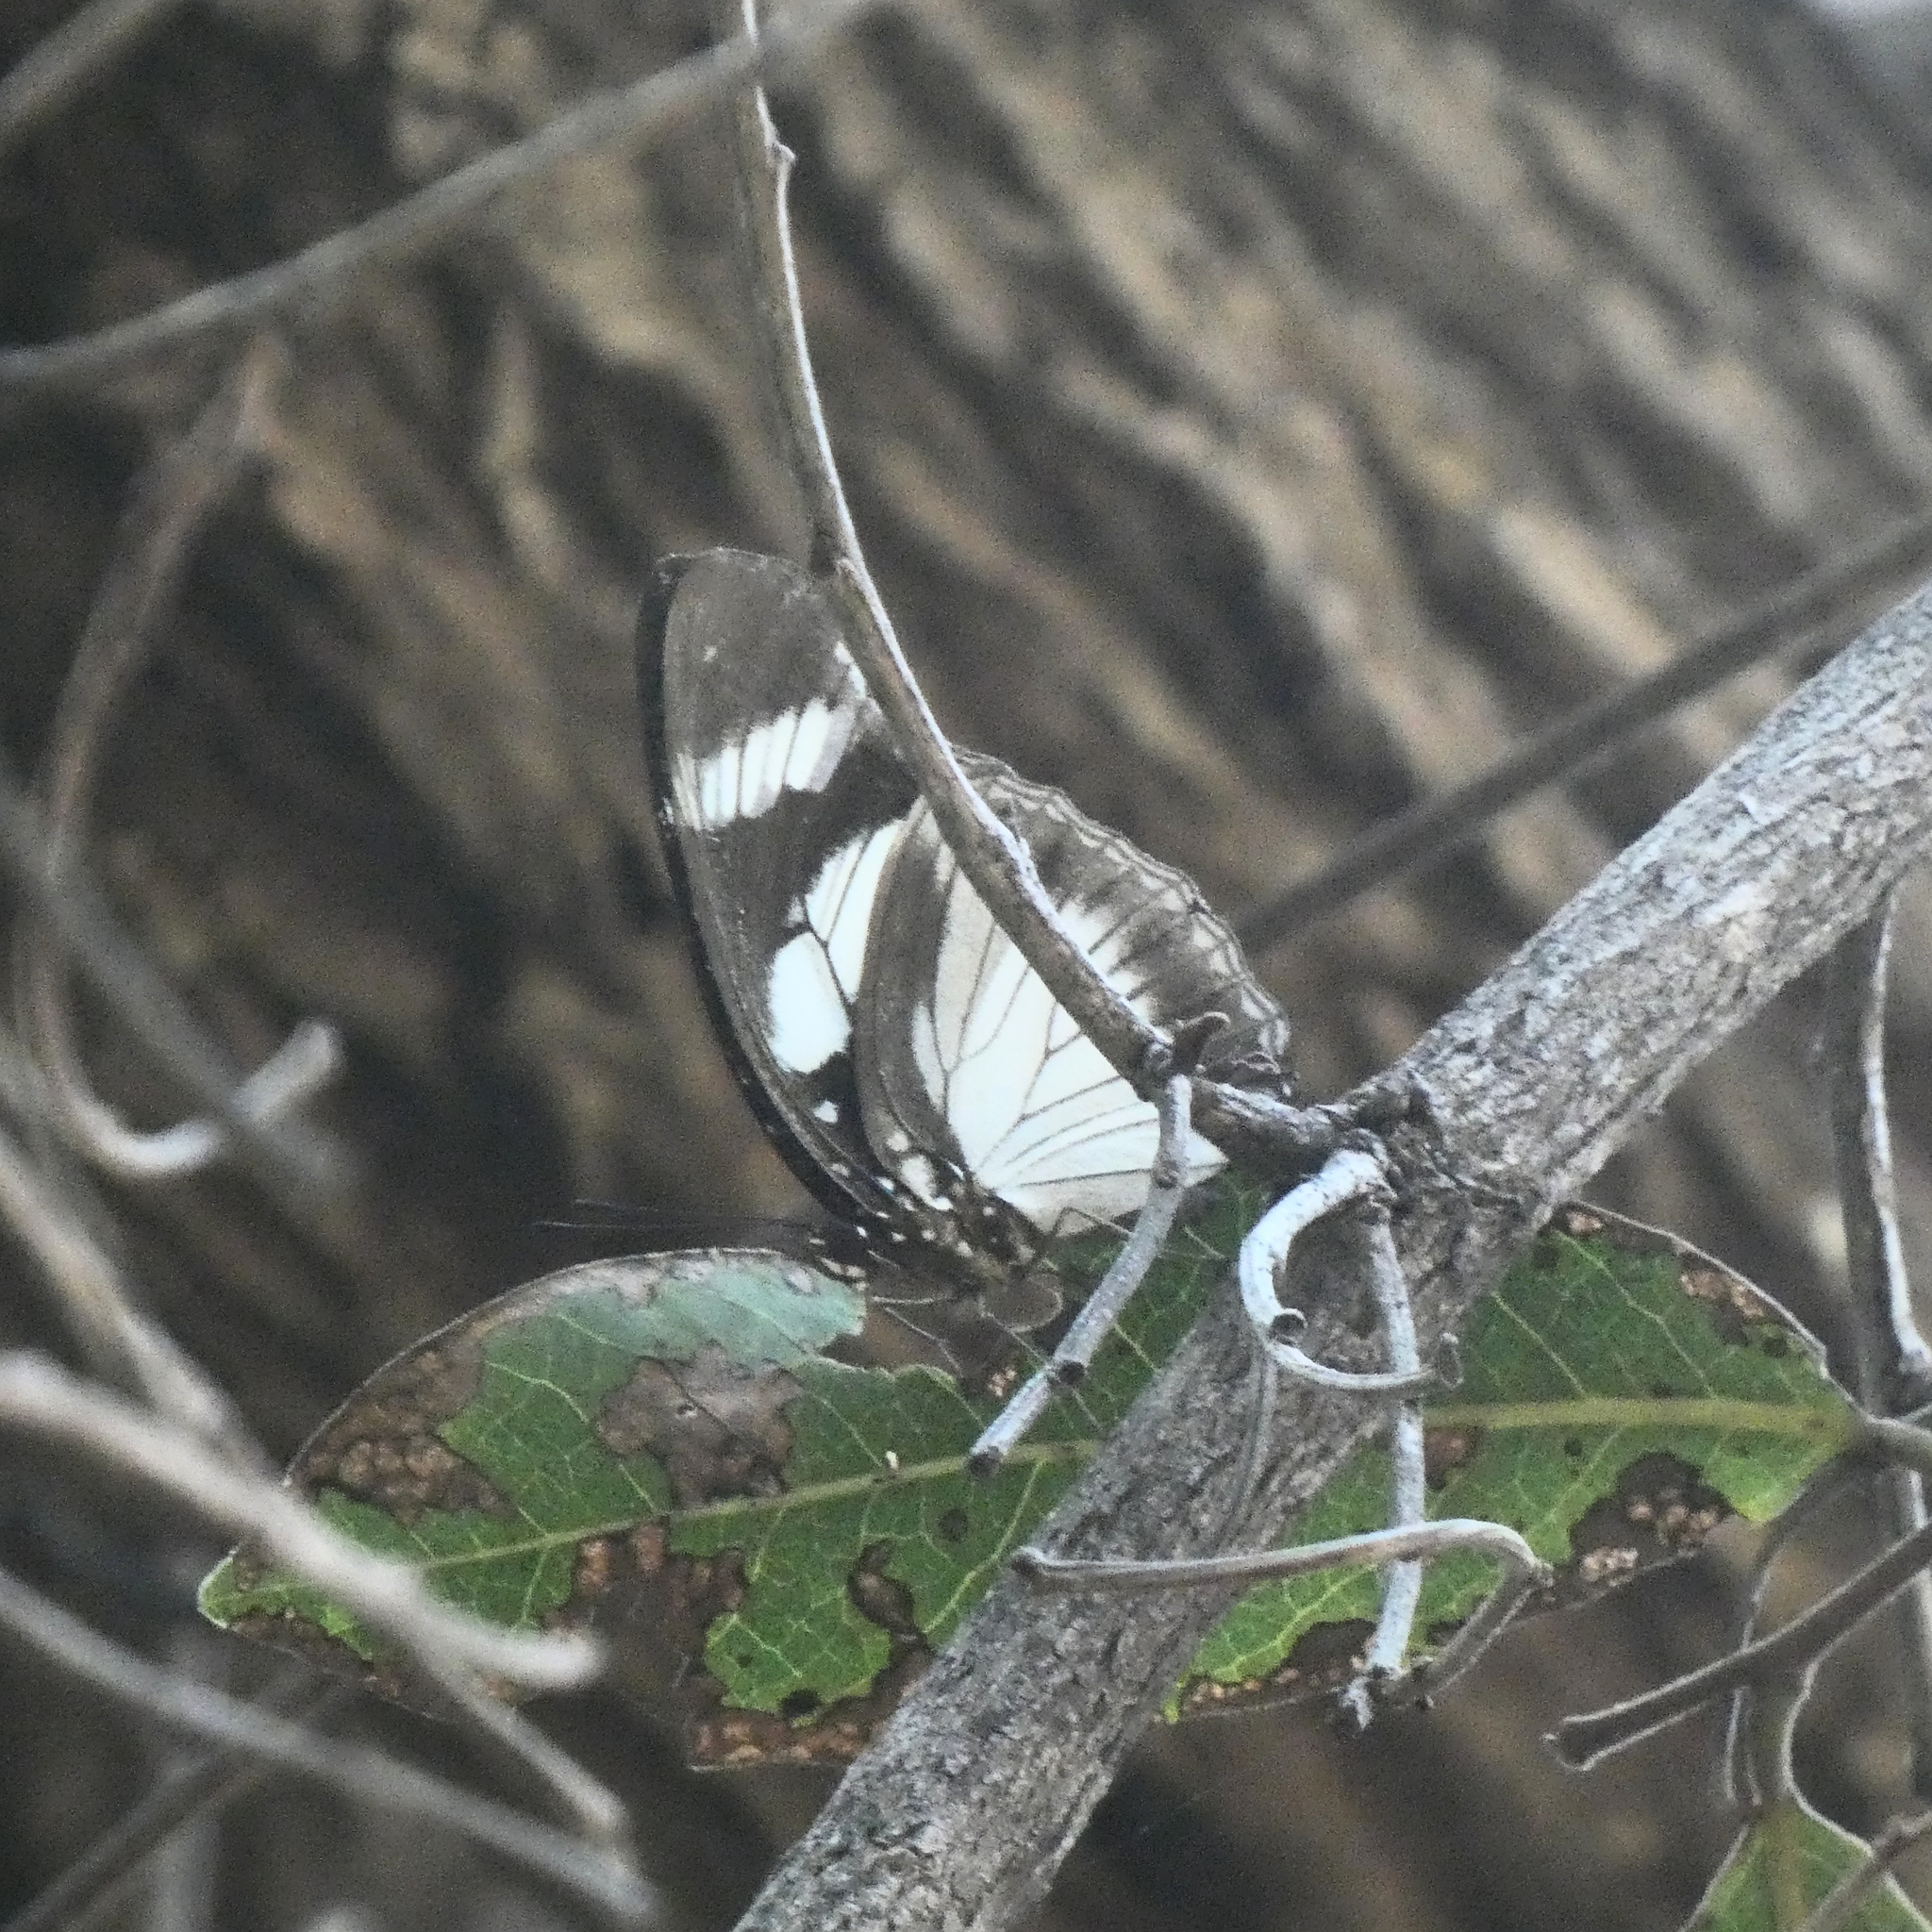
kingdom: Animalia
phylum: Arthropoda
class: Insecta
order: Lepidoptera
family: Nymphalidae
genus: Hypolimnas
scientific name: Hypolimnas deceptor
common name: Deceptive diadem
